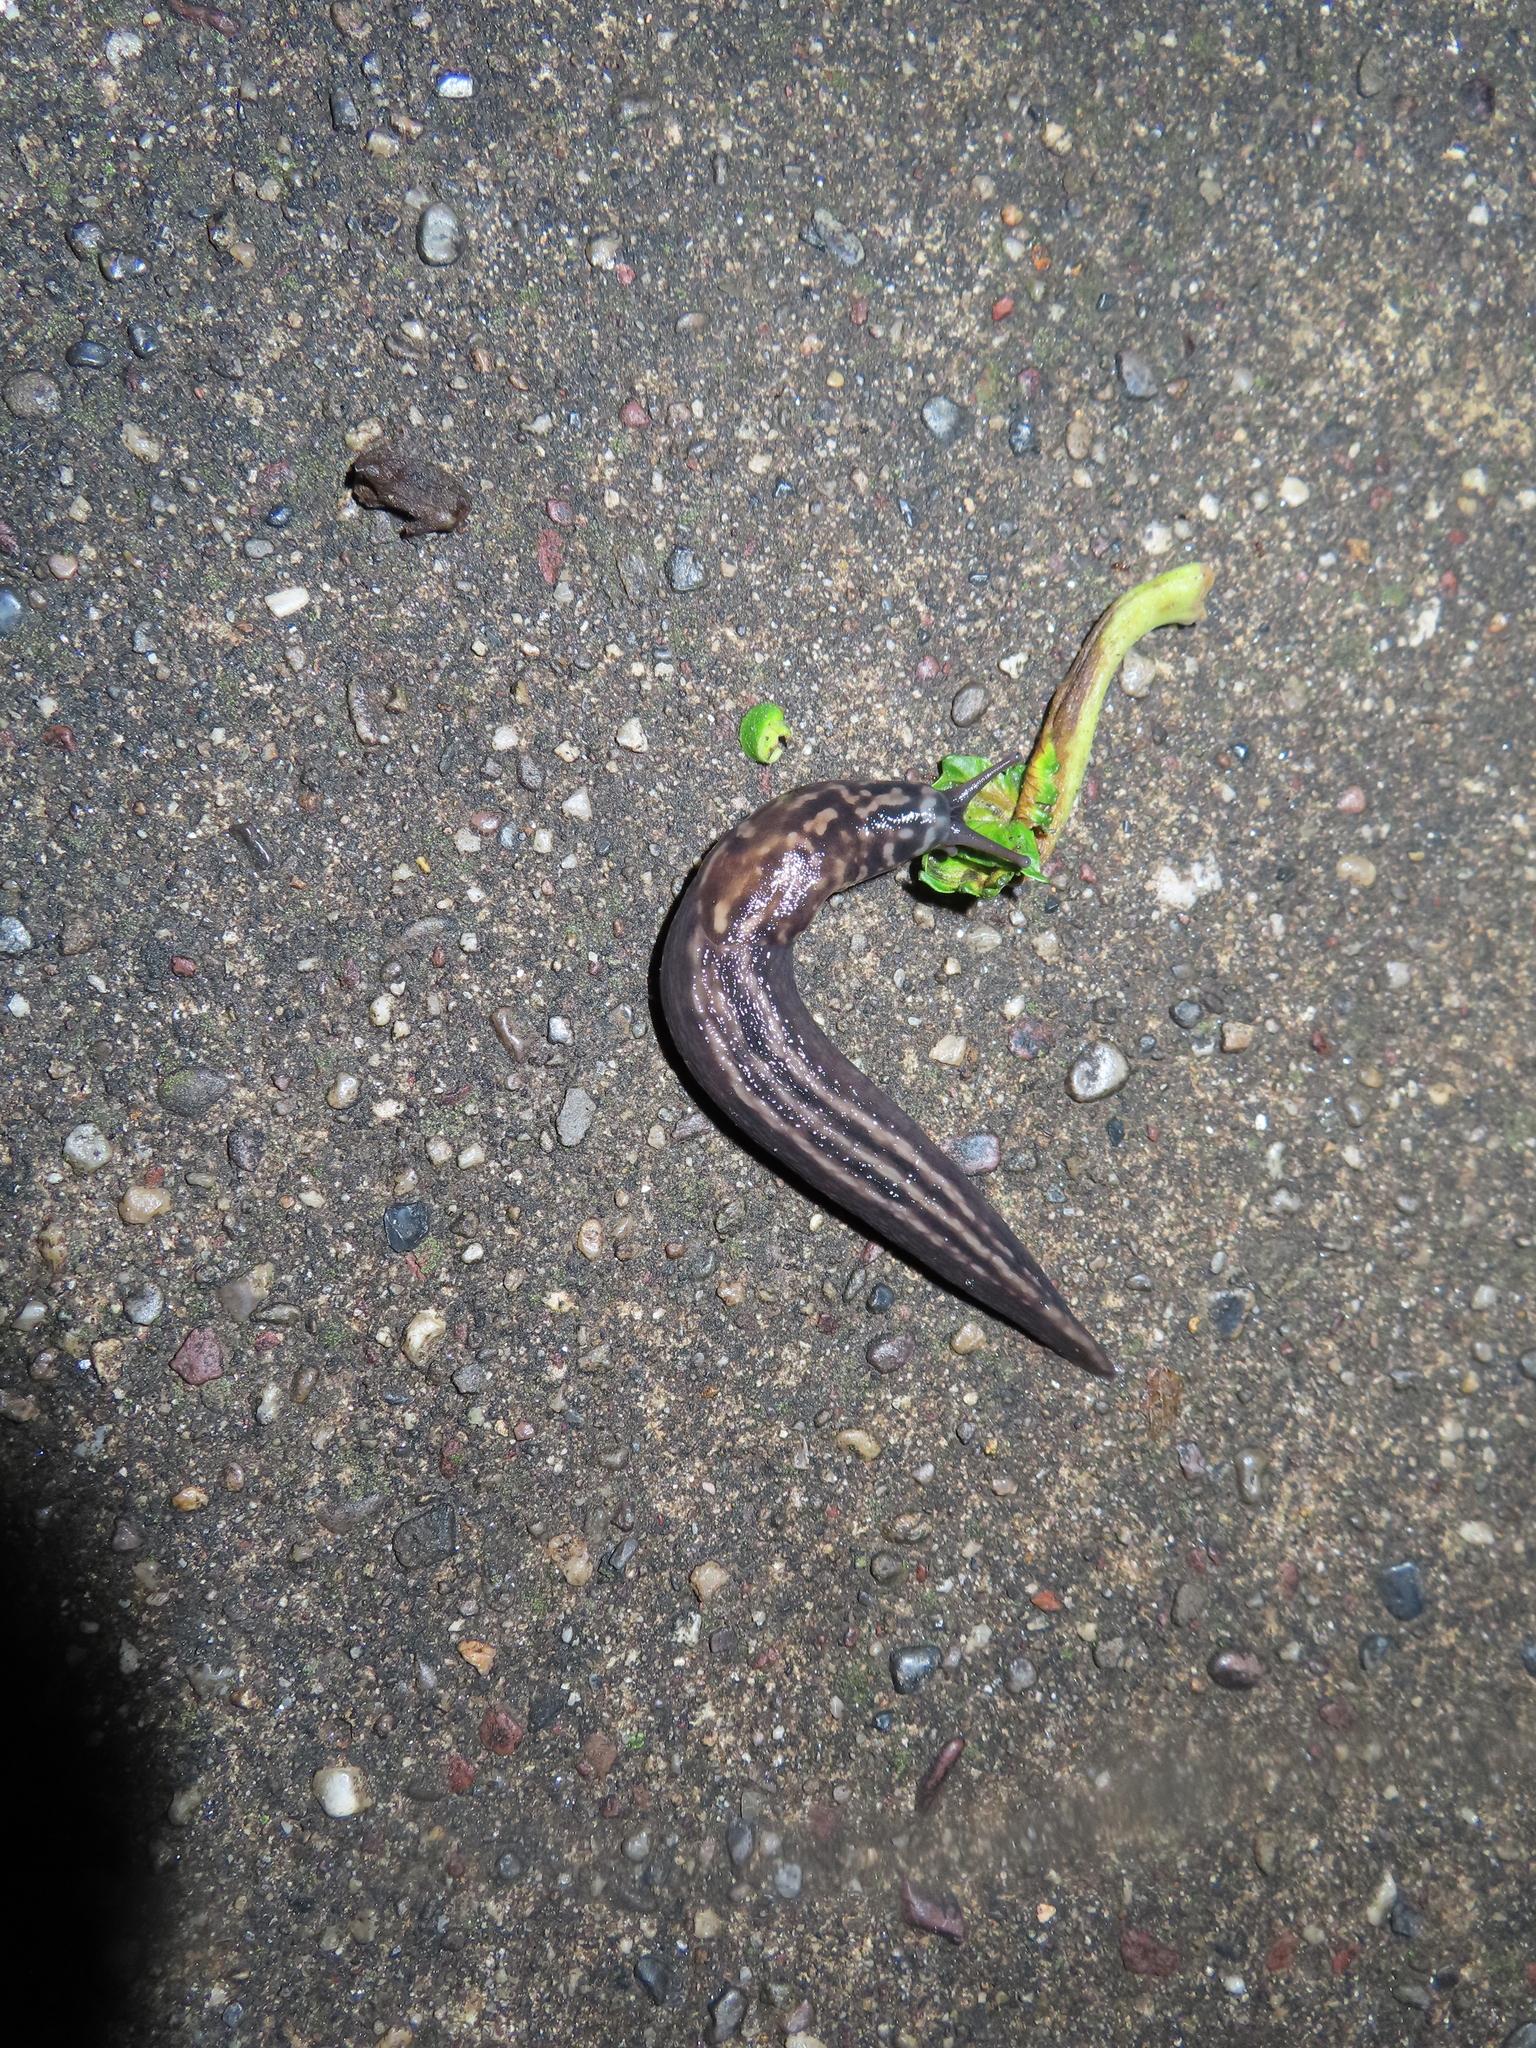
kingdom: Animalia
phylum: Mollusca
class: Gastropoda
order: Stylommatophora
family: Limacidae
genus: Limax
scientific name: Limax maximus
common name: Great grey slug
